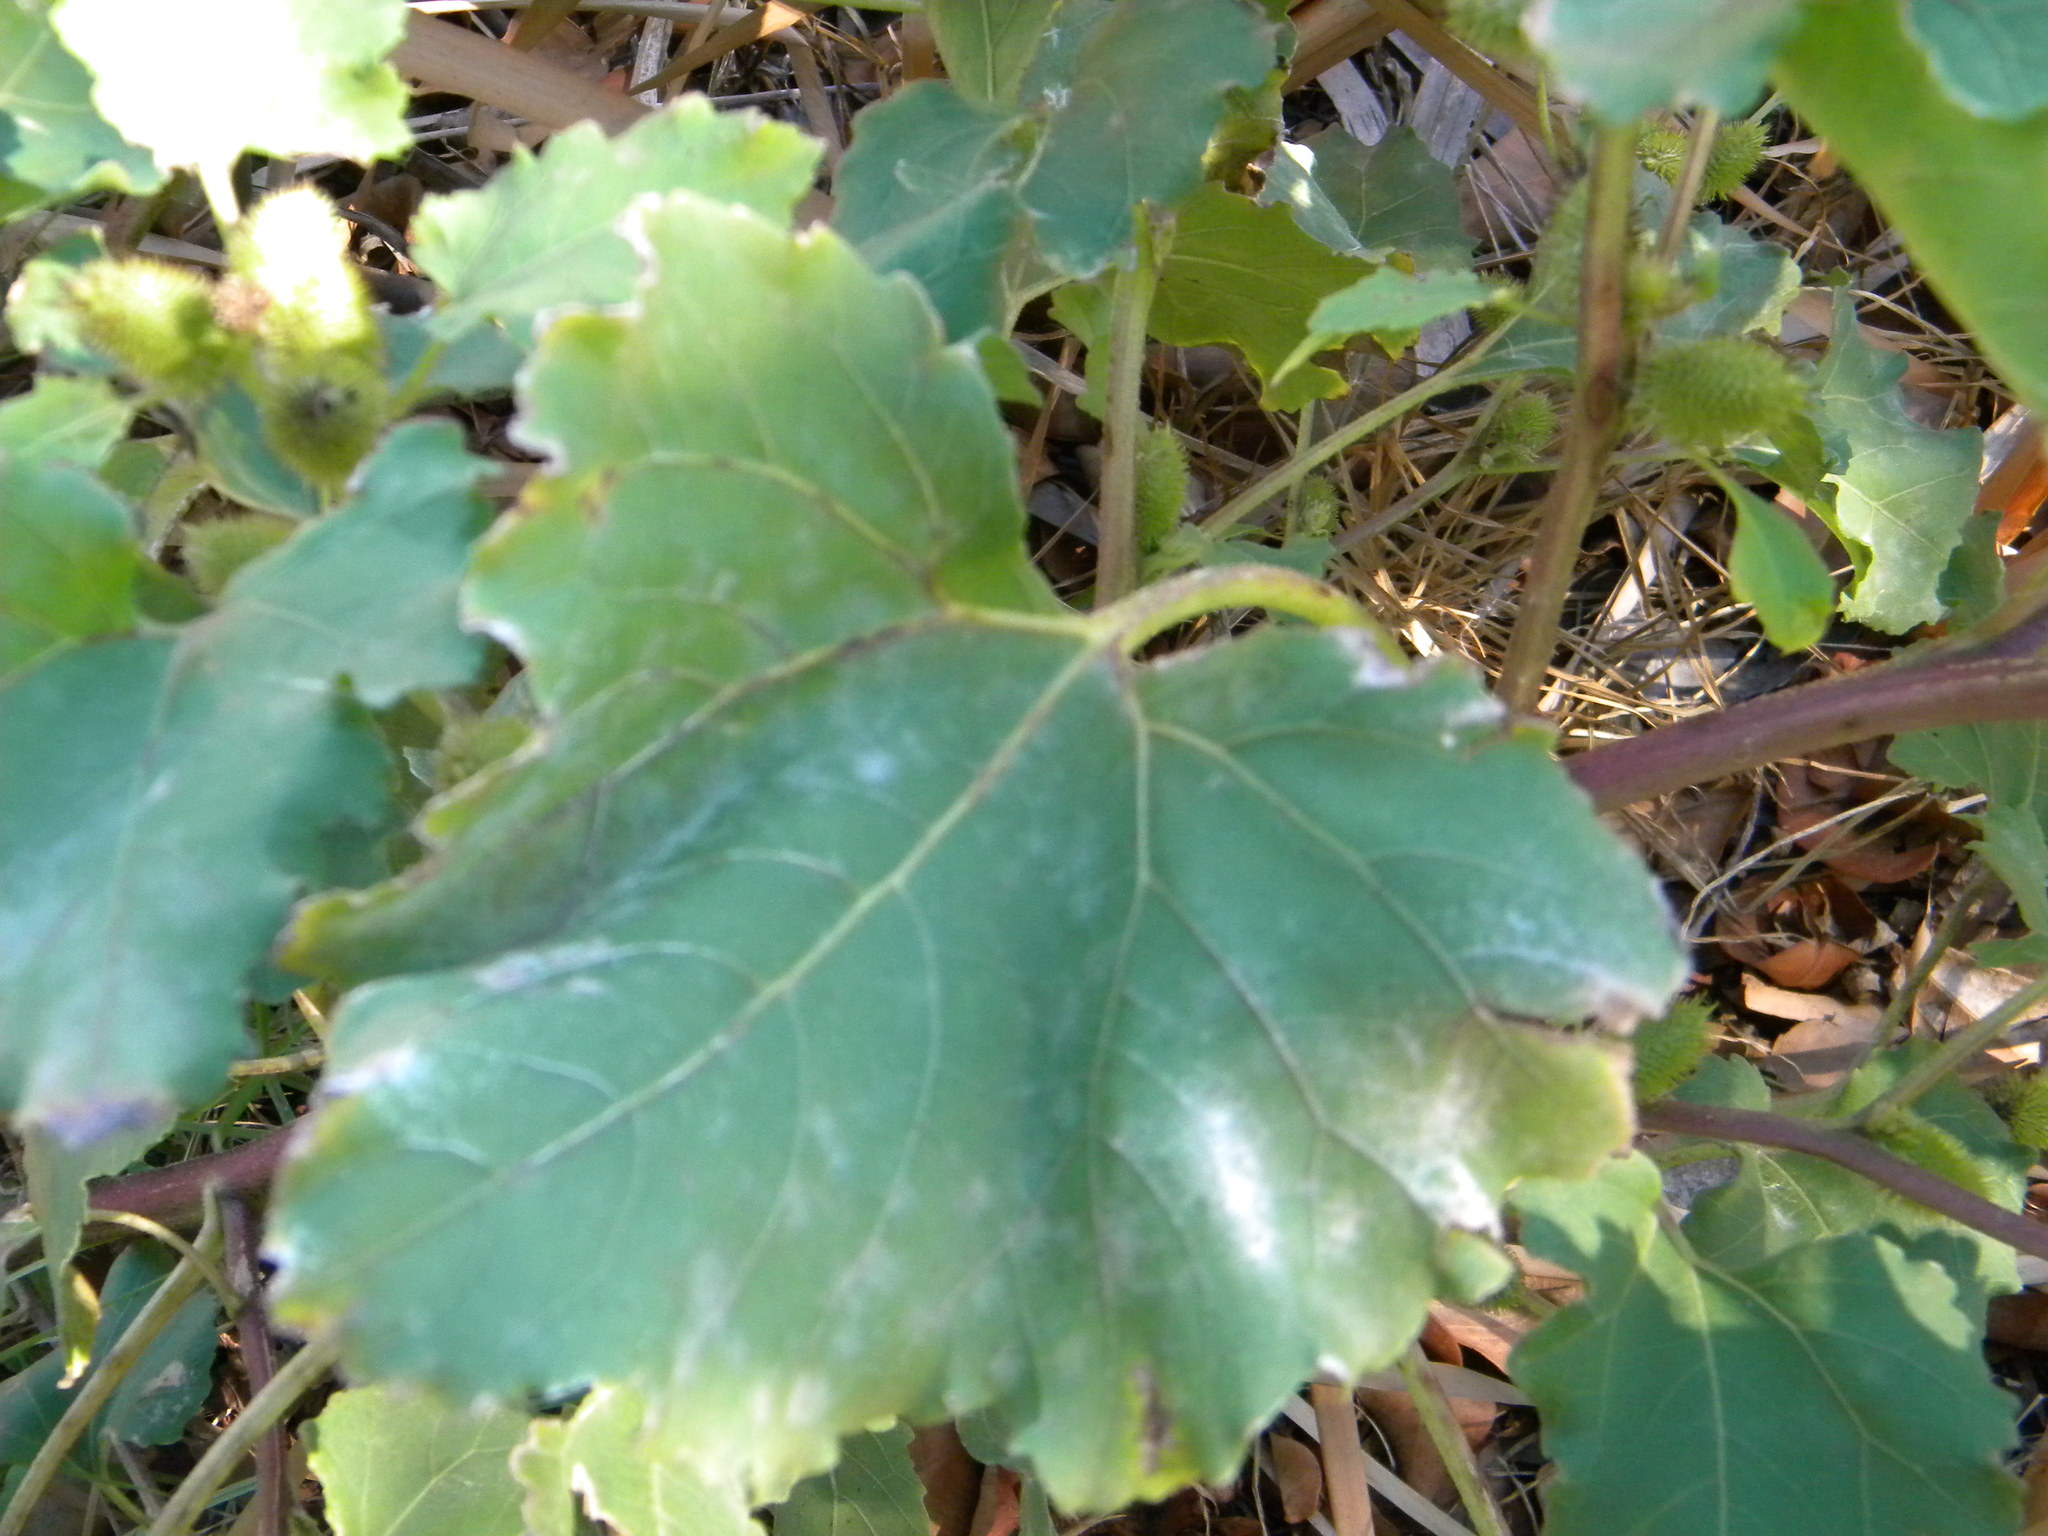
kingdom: Plantae
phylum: Tracheophyta
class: Magnoliopsida
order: Asterales
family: Asteraceae
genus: Xanthium
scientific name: Xanthium strumarium
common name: Rough cocklebur
